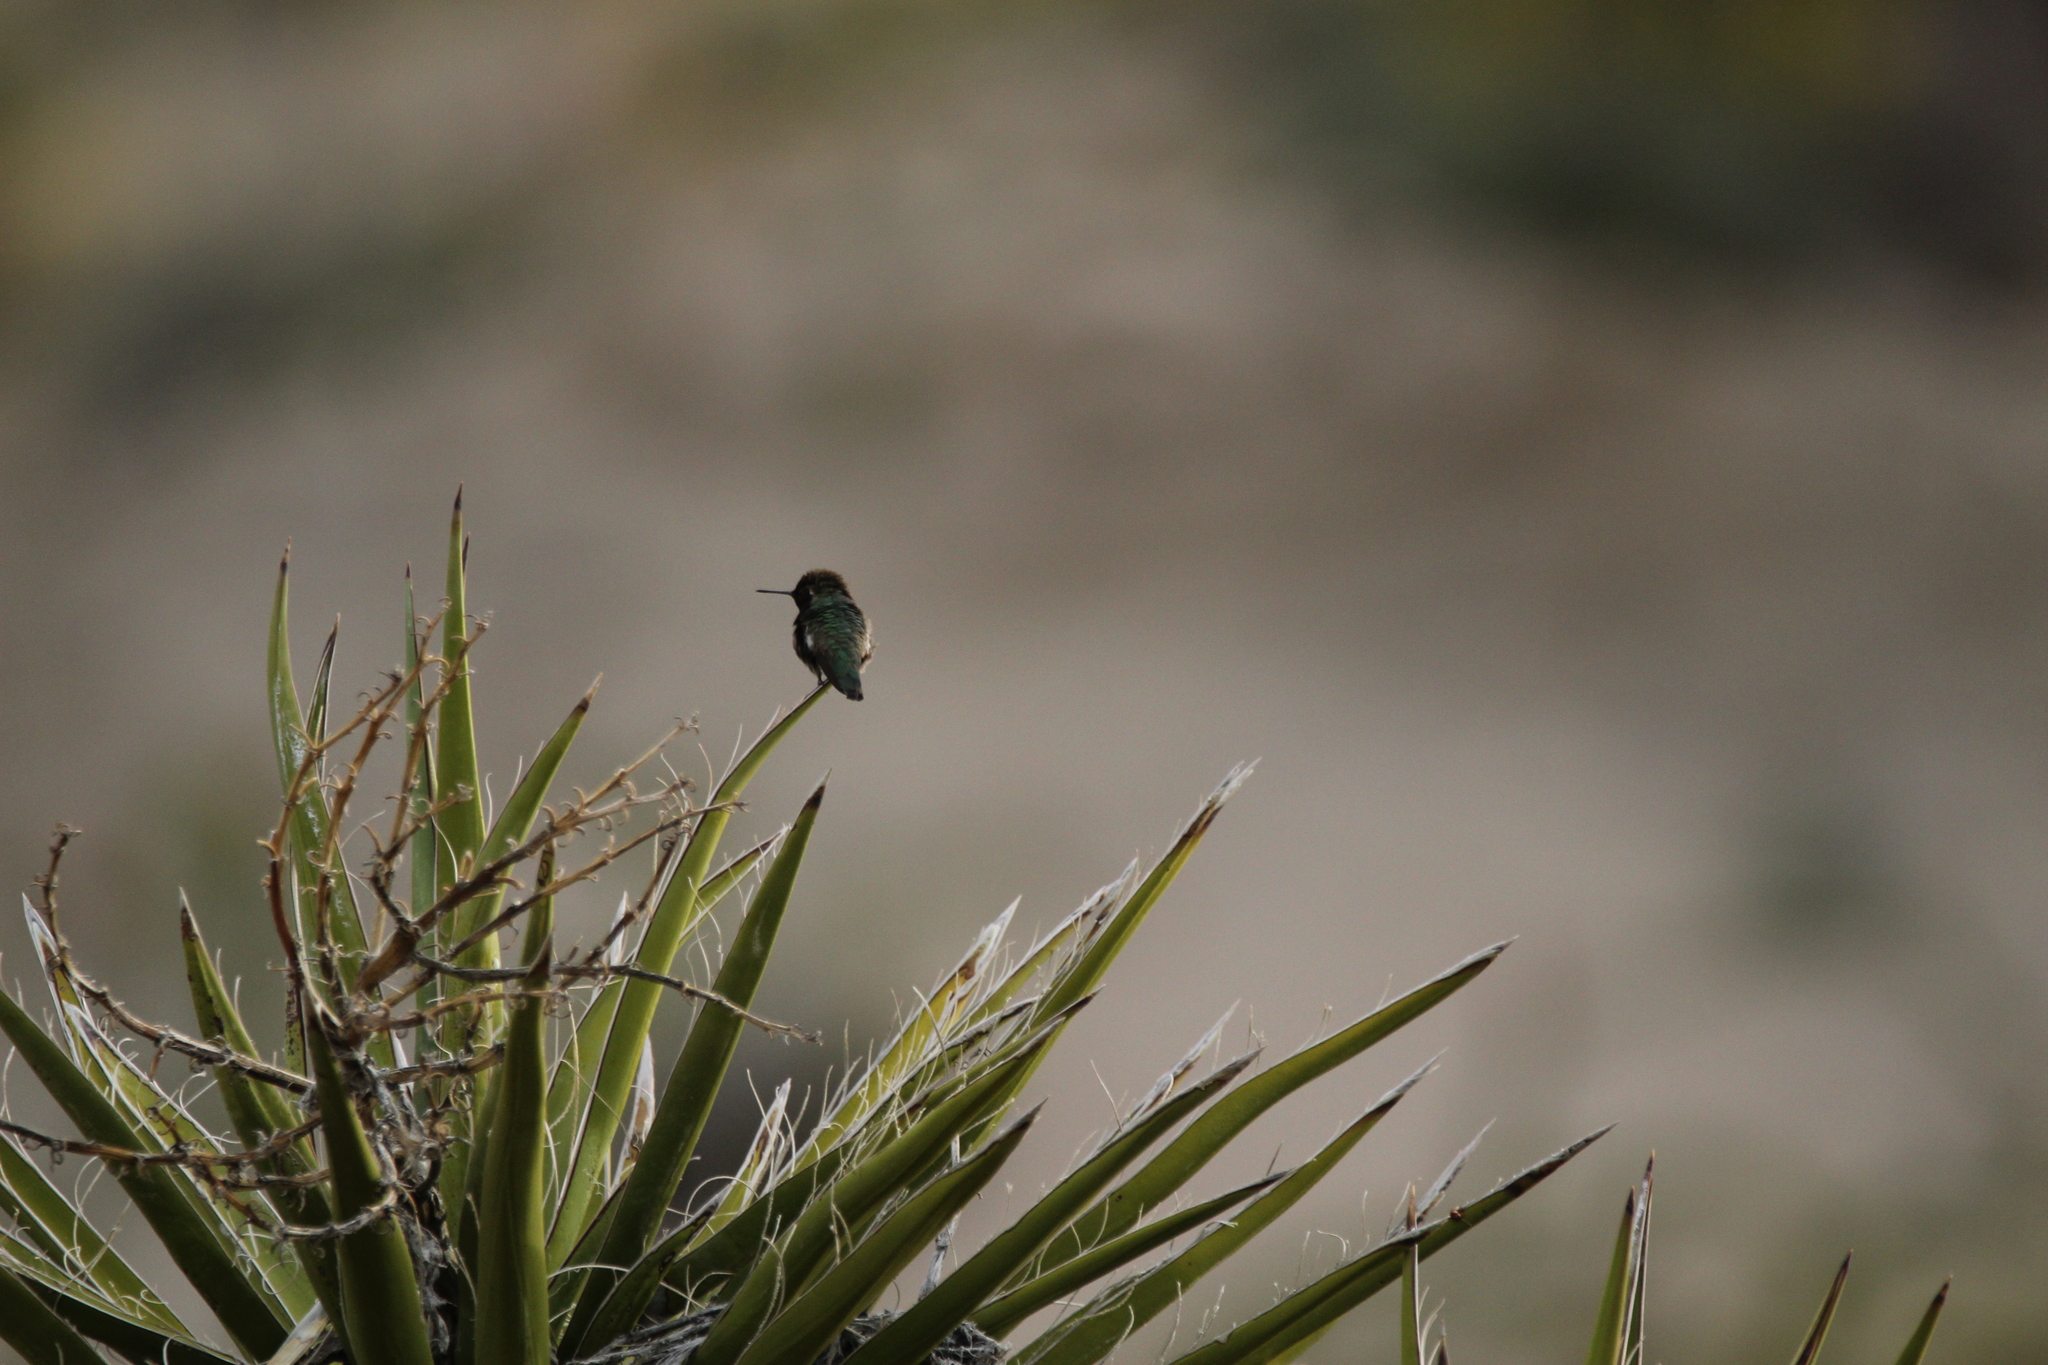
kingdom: Animalia
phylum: Chordata
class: Aves
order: Apodiformes
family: Trochilidae
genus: Calypte
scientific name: Calypte anna
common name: Anna's hummingbird
